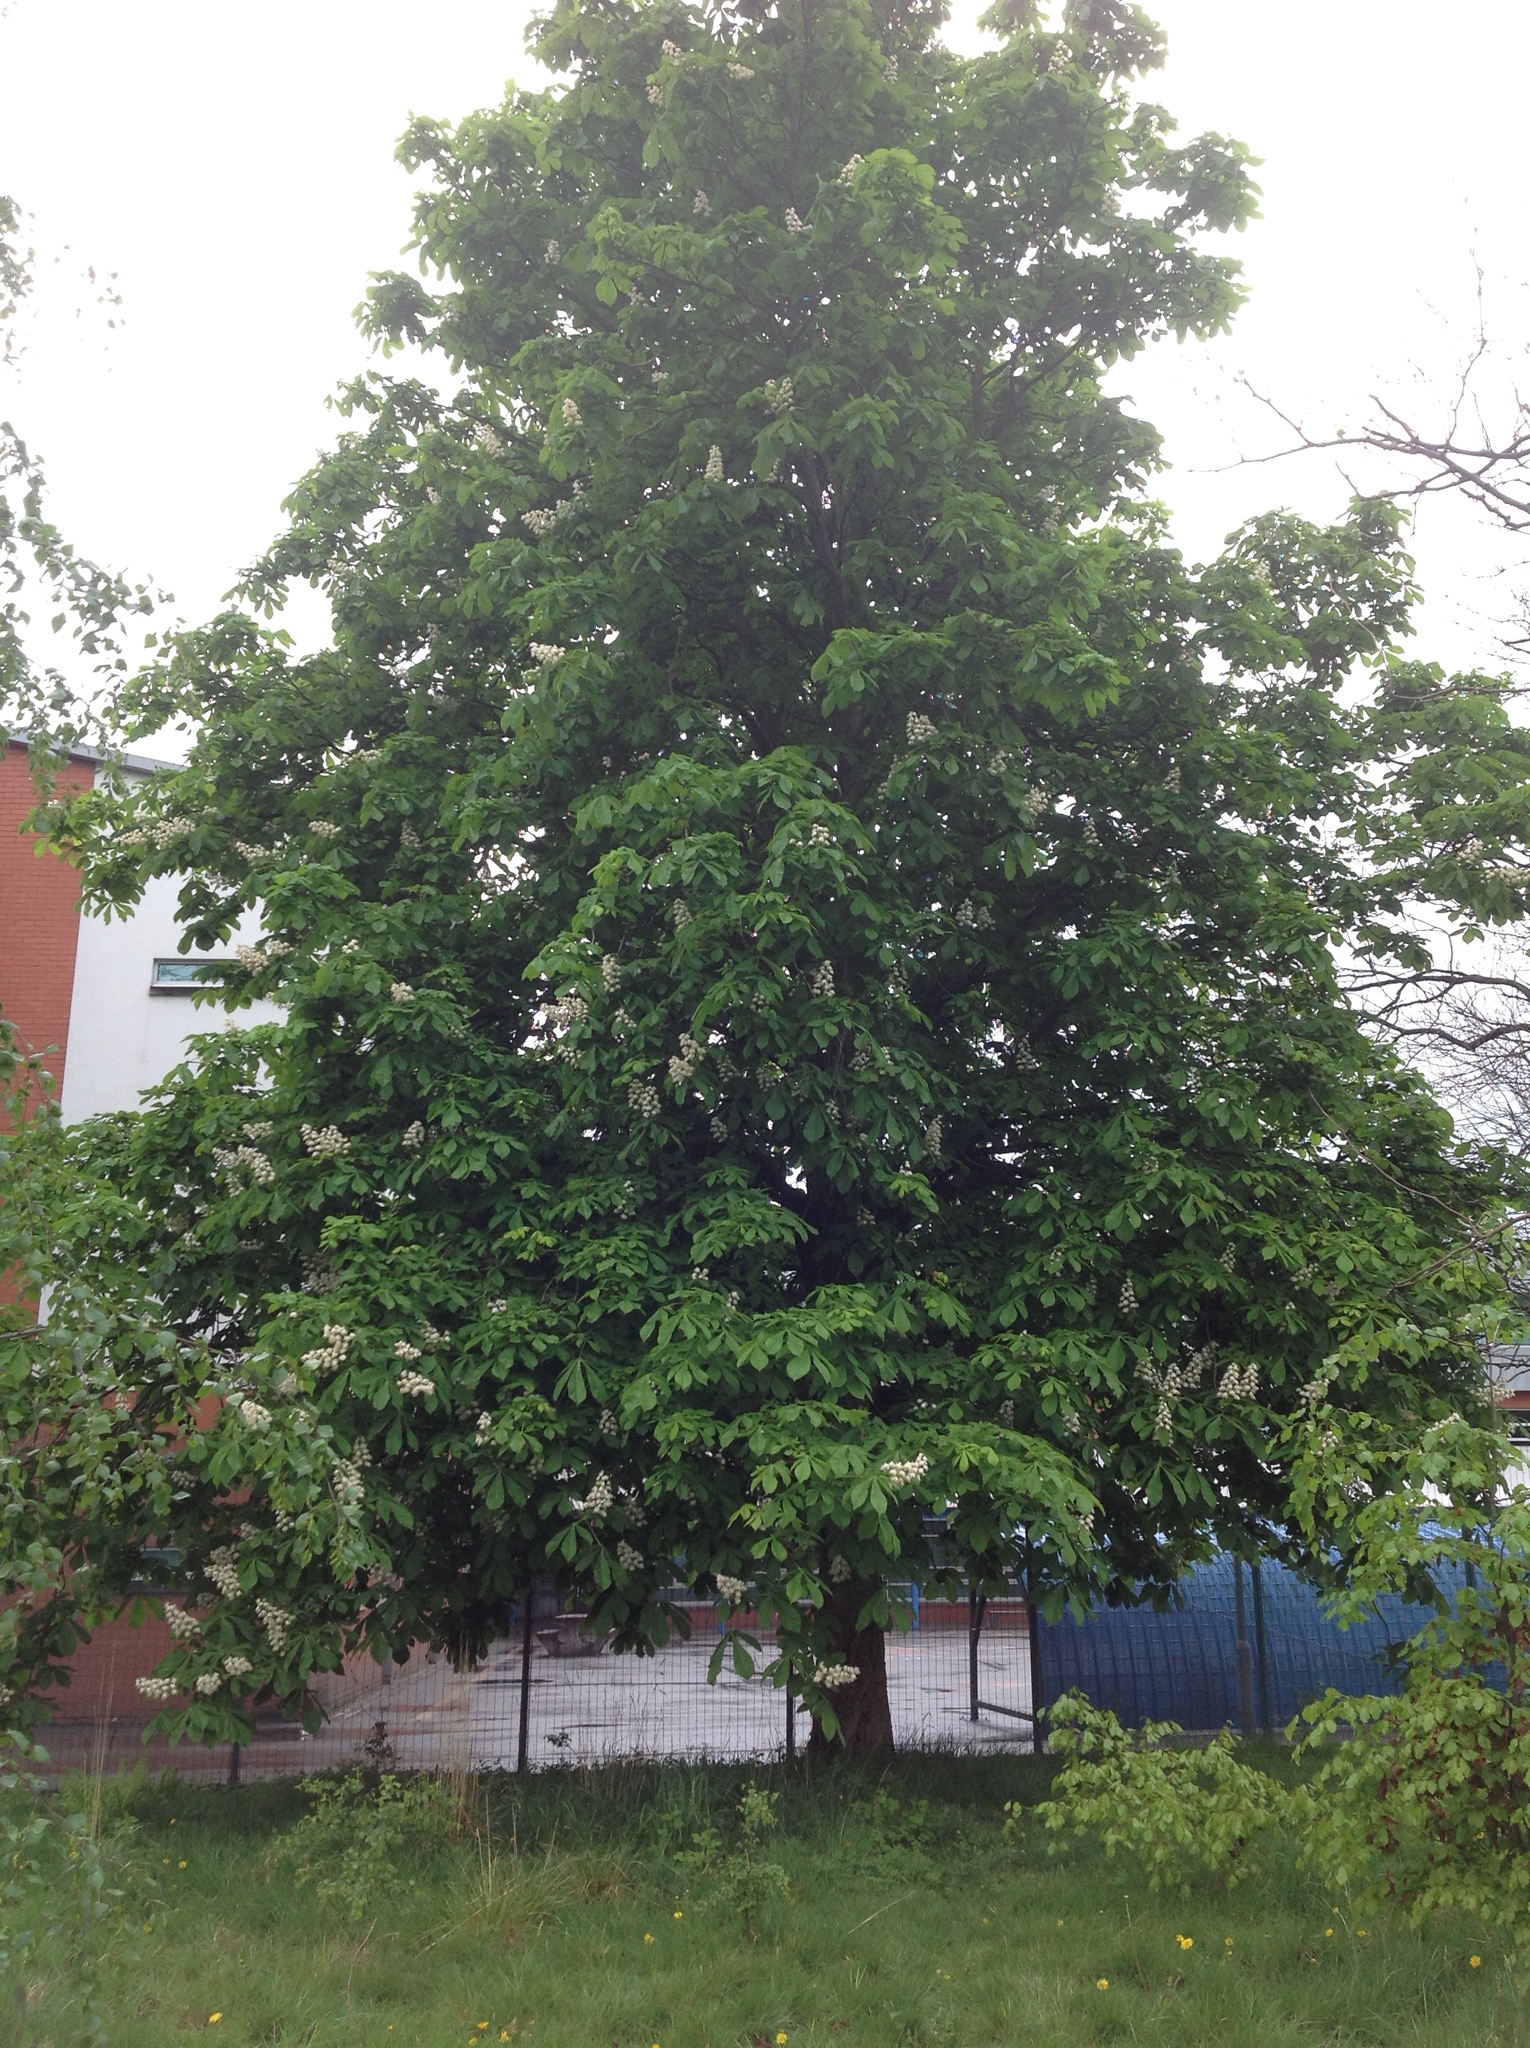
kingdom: Plantae
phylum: Tracheophyta
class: Magnoliopsida
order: Sapindales
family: Sapindaceae
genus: Aesculus
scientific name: Aesculus hippocastanum
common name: Horse-chestnut
